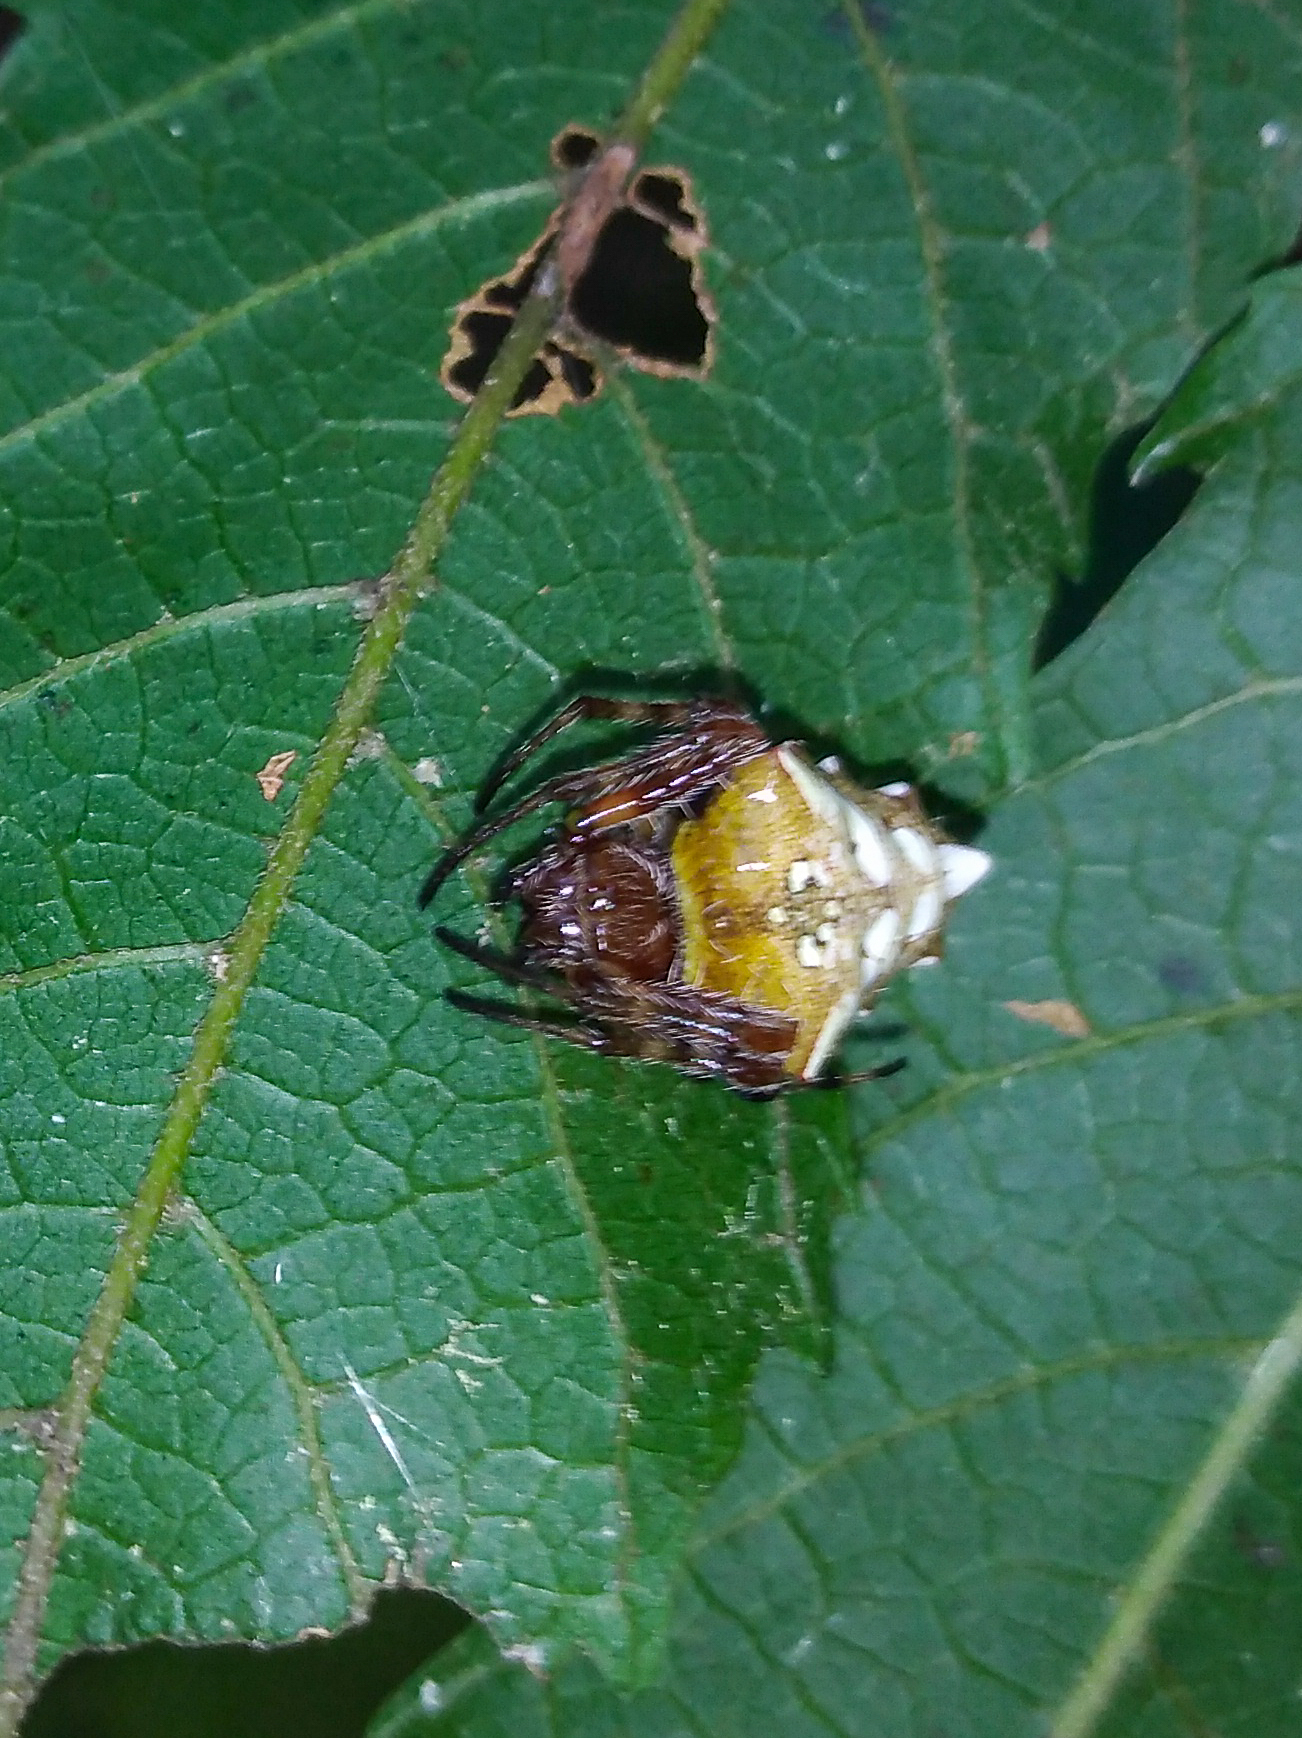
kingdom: Animalia
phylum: Arthropoda
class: Arachnida
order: Araneae
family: Araneidae
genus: Verrucosa
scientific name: Verrucosa meridionalis
